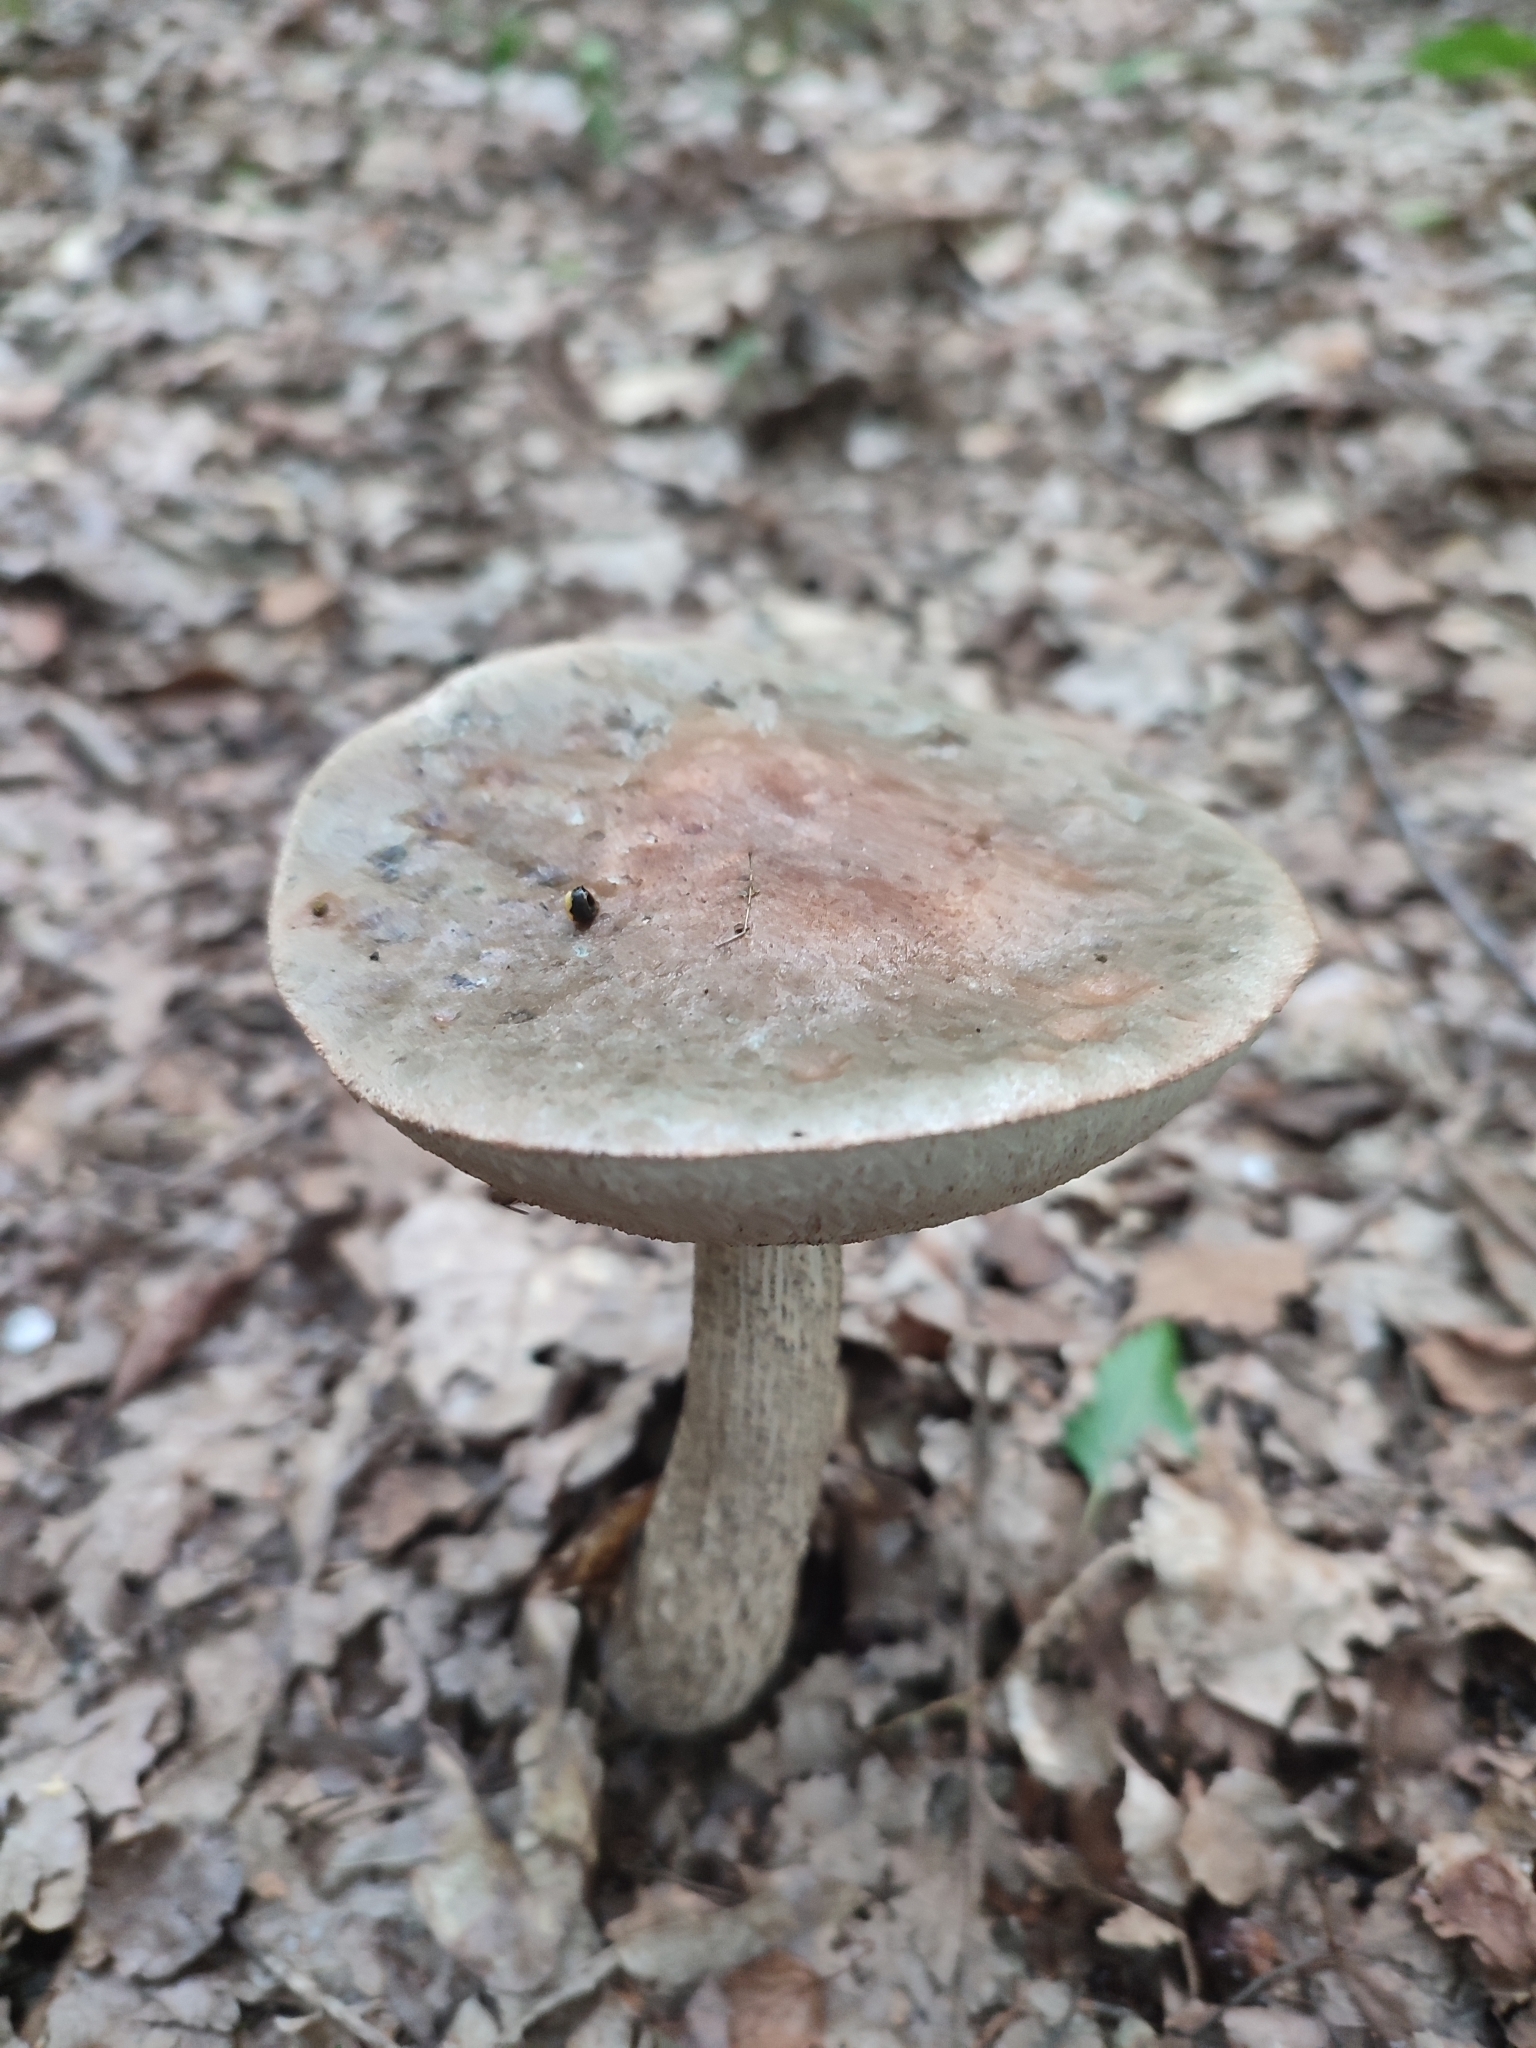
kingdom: Fungi
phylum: Basidiomycota
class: Agaricomycetes
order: Boletales
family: Boletaceae
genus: Leccinum
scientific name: Leccinum scabrum
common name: Blushing bolete
